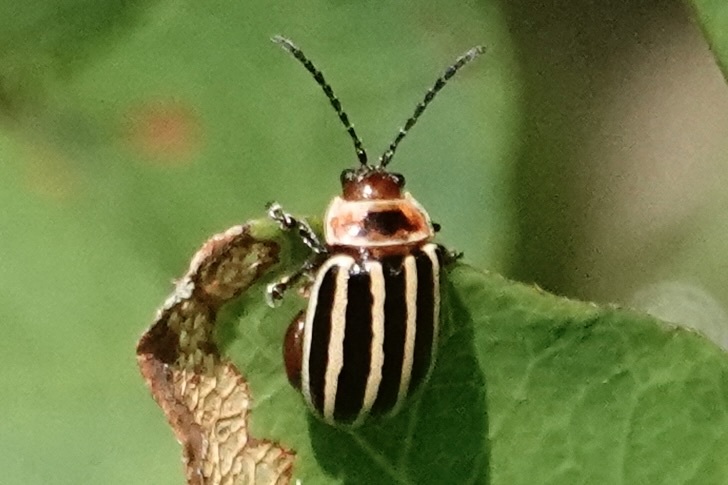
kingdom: Animalia
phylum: Arthropoda
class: Insecta
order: Coleoptera
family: Chrysomelidae
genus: Kuschelina
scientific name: Kuschelina petaurista
